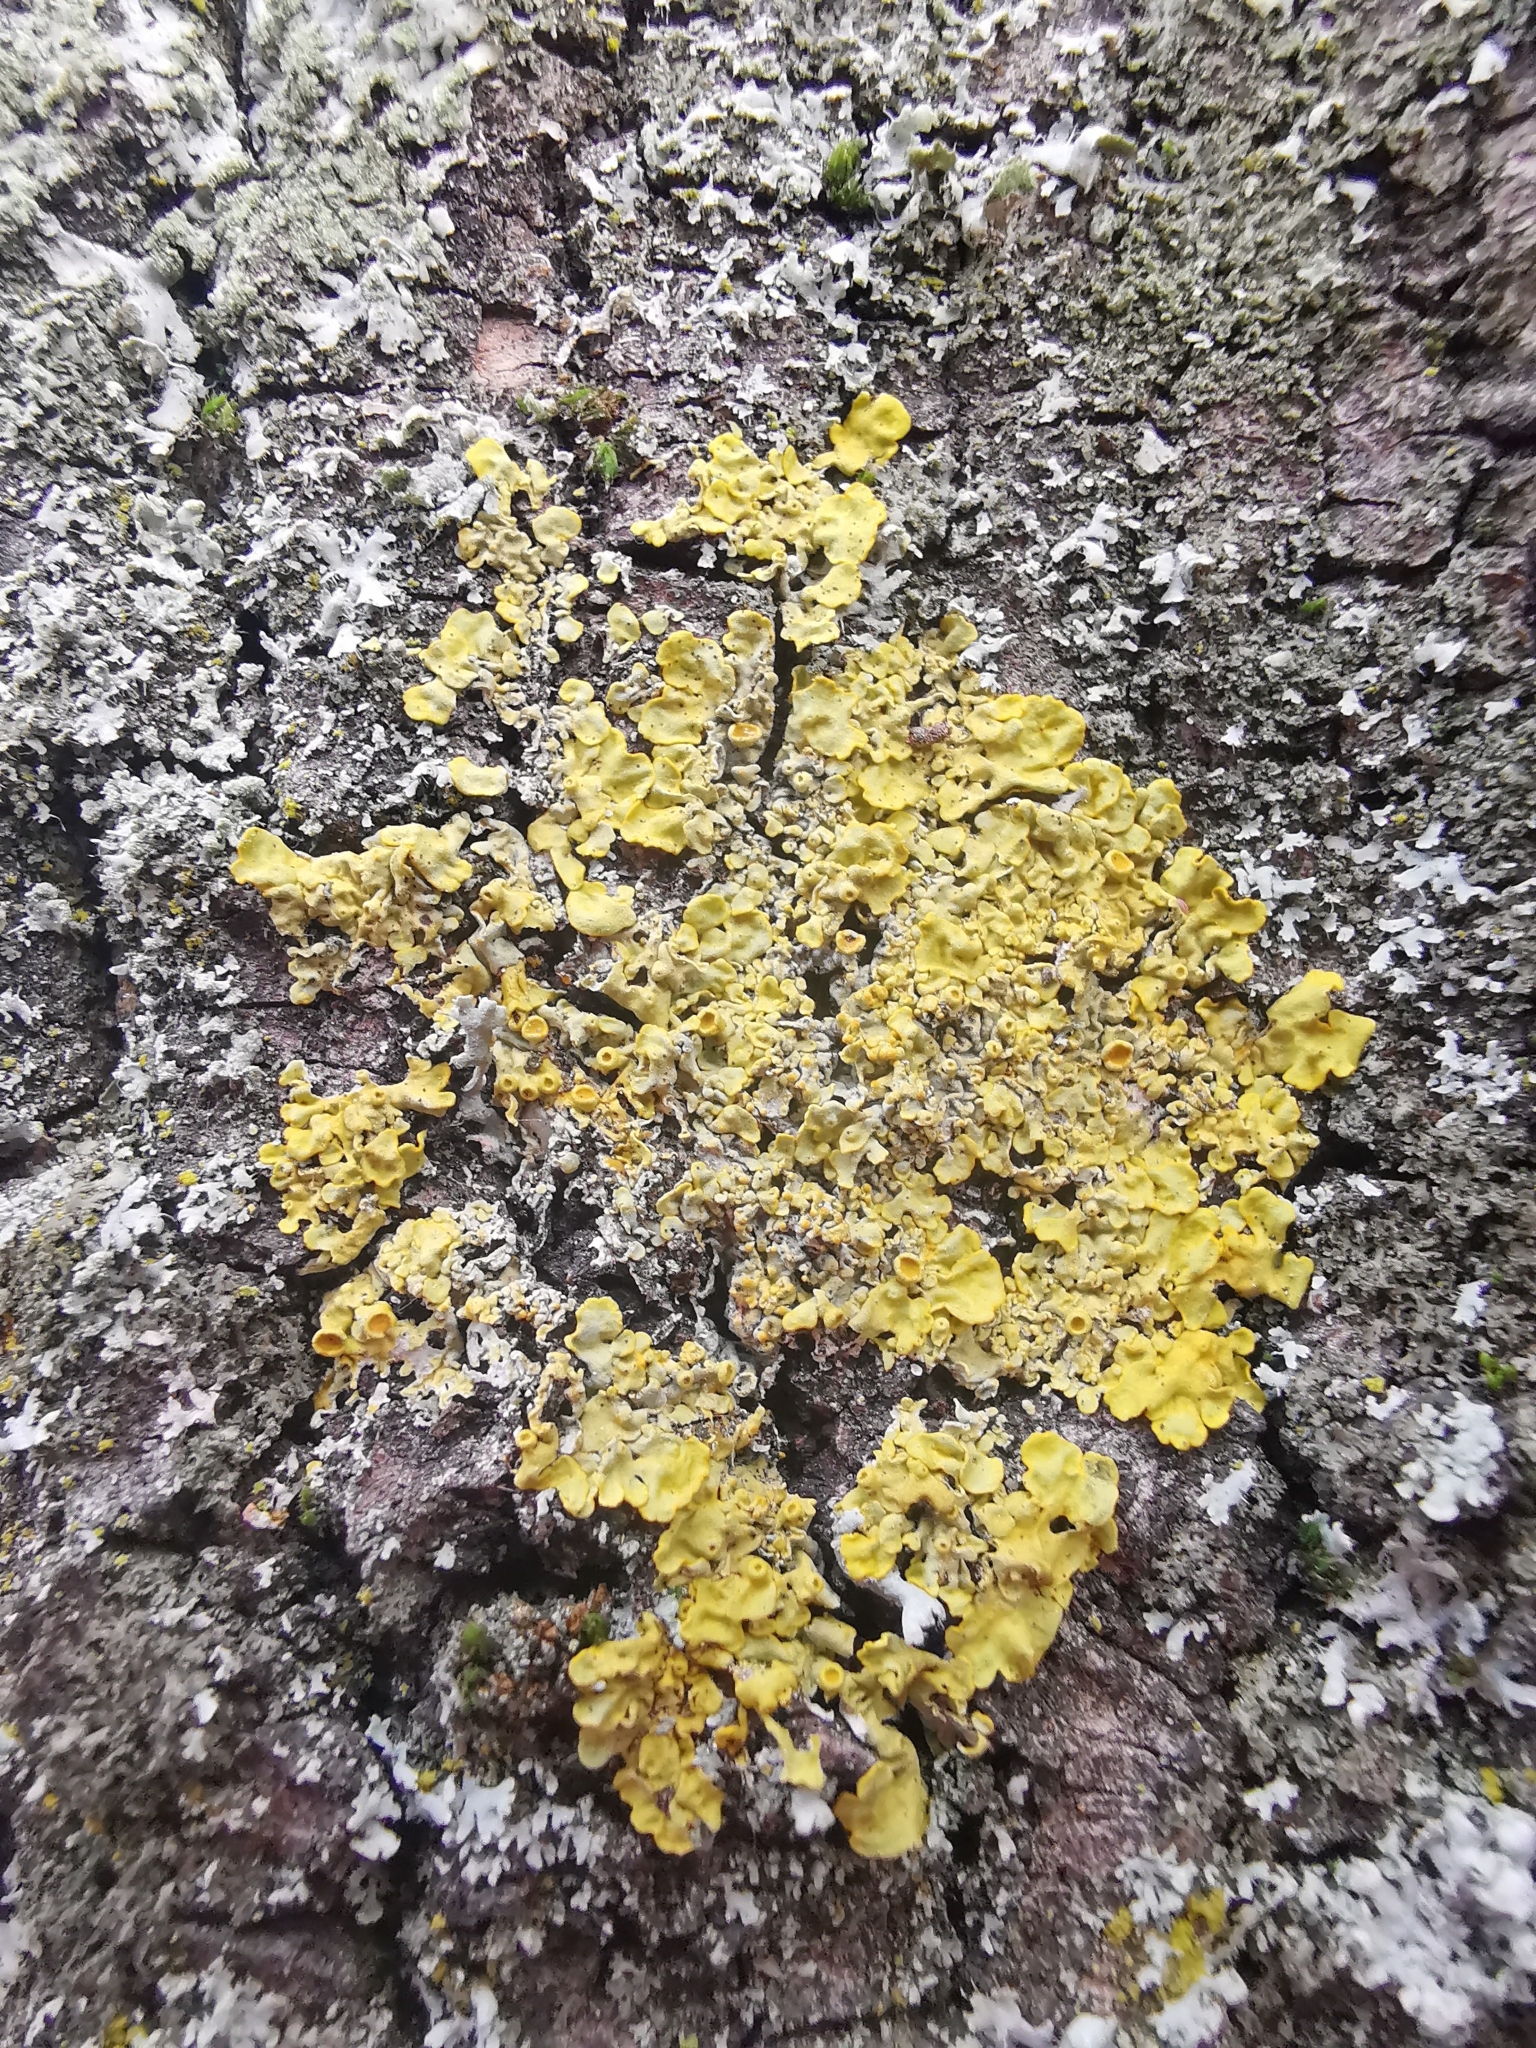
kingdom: Fungi
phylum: Ascomycota
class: Lecanoromycetes
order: Teloschistales
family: Teloschistaceae
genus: Xanthoria
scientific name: Xanthoria parietina
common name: Common orange lichen
